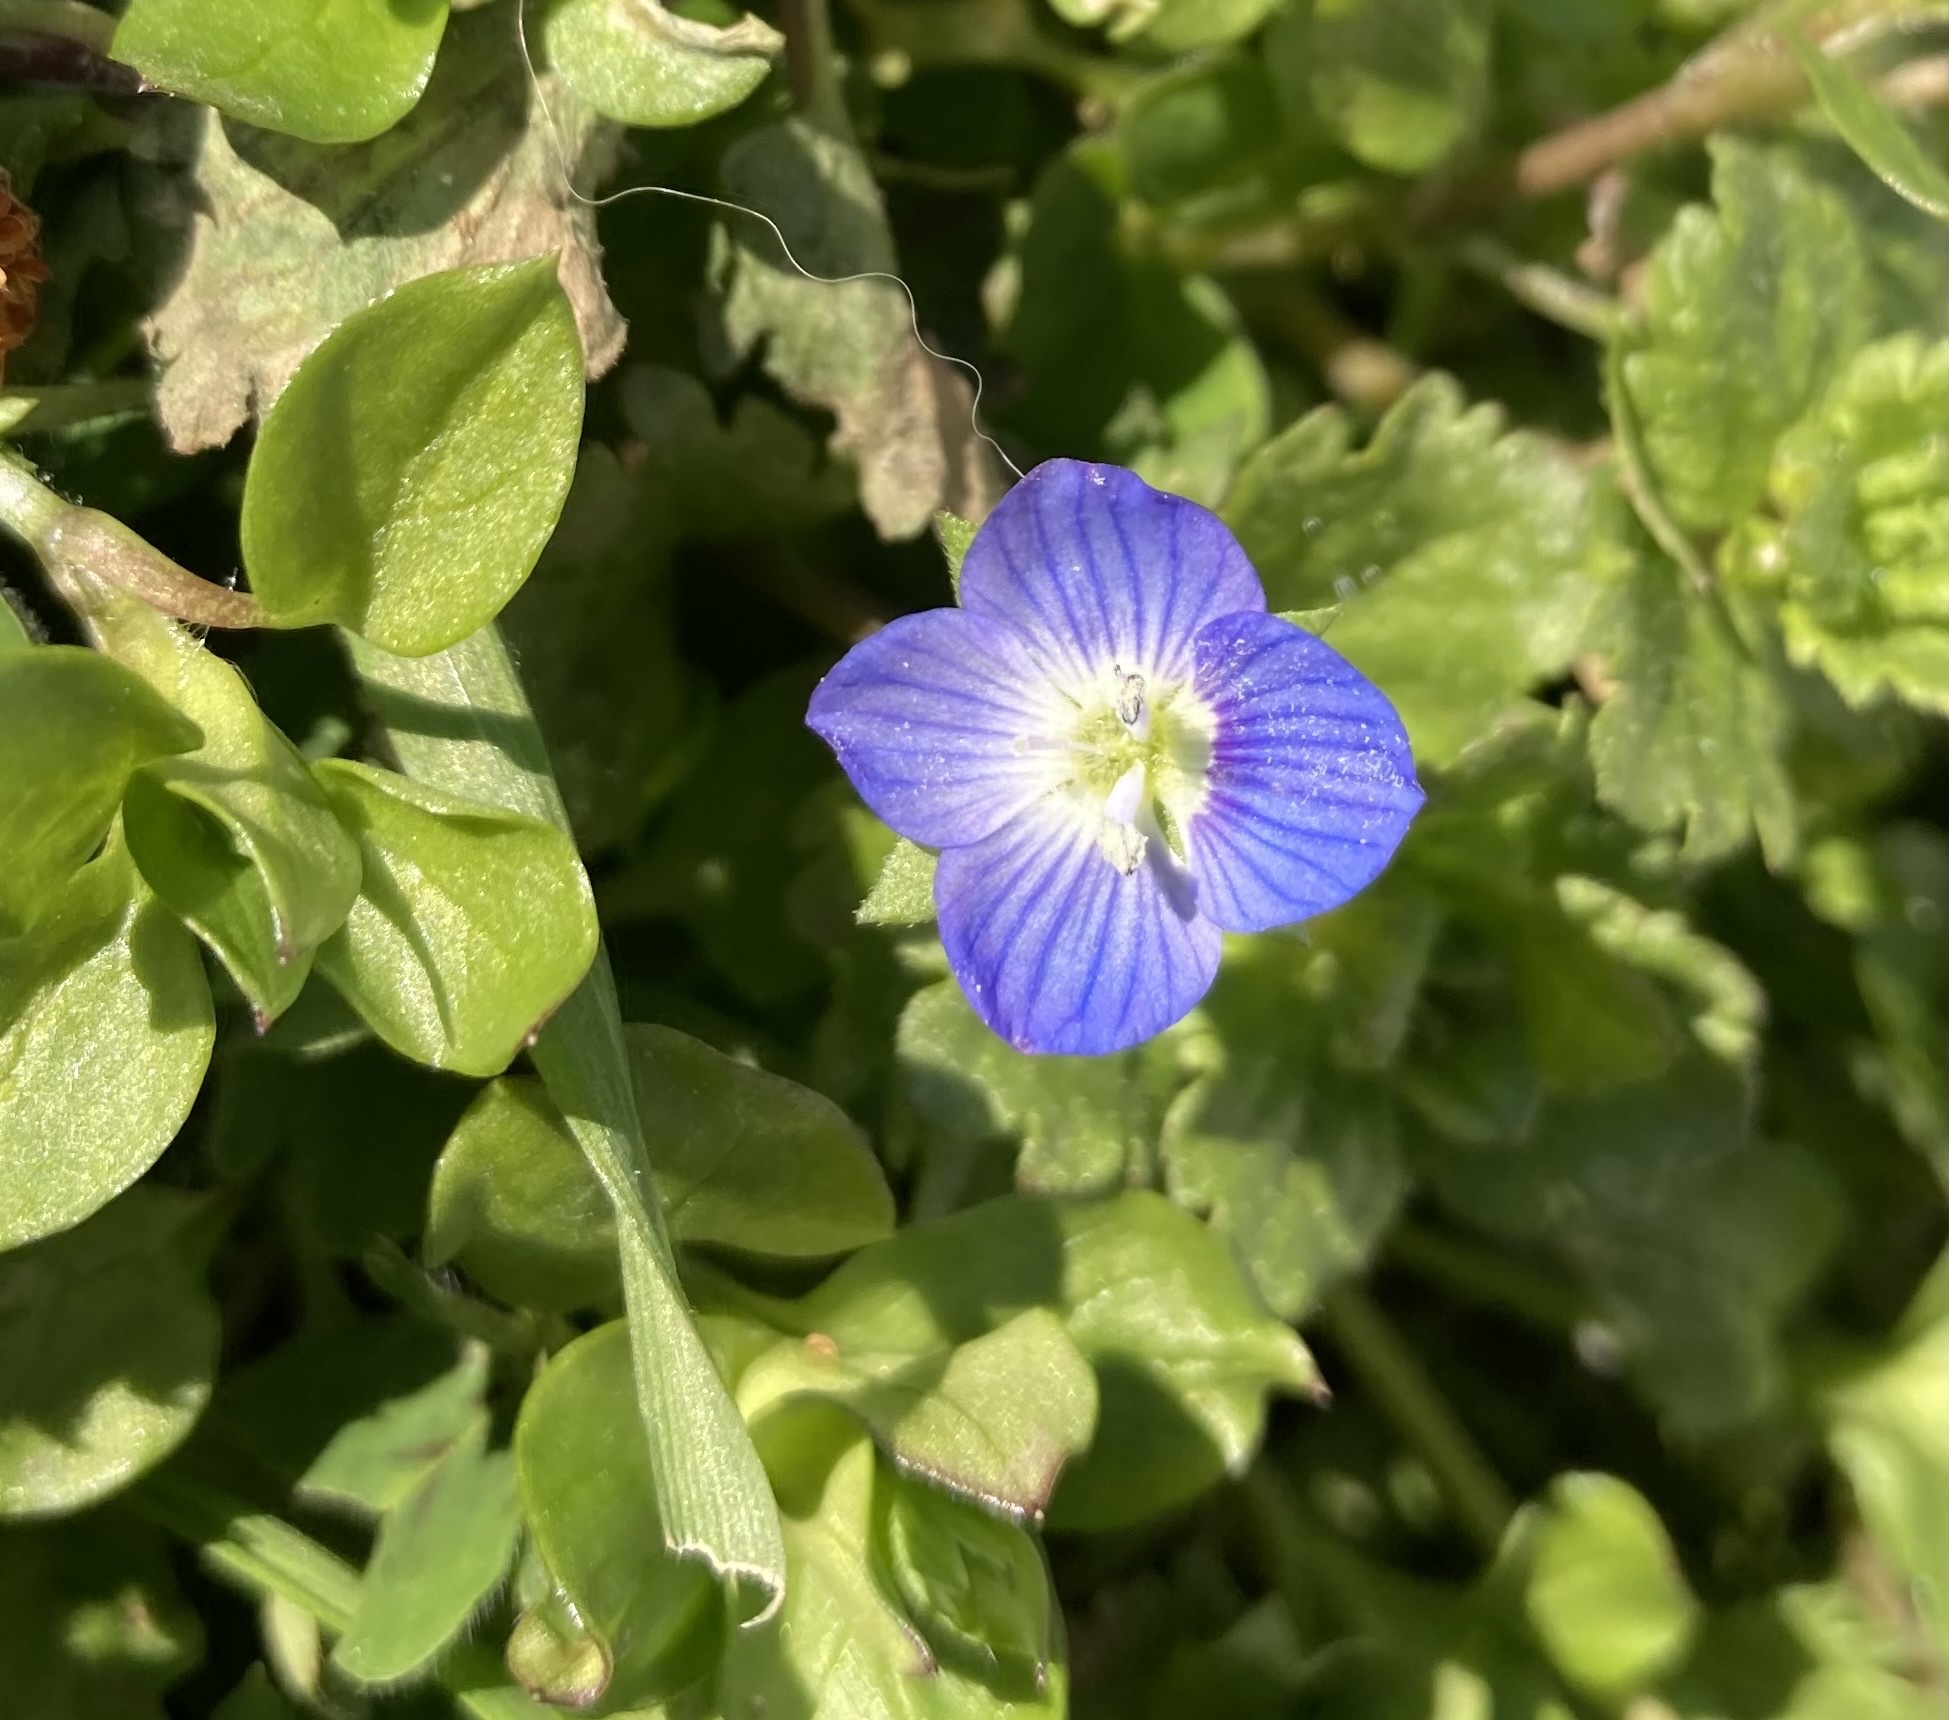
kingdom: Plantae
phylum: Tracheophyta
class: Magnoliopsida
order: Lamiales
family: Plantaginaceae
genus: Veronica
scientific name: Veronica persica
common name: Common field-speedwell
